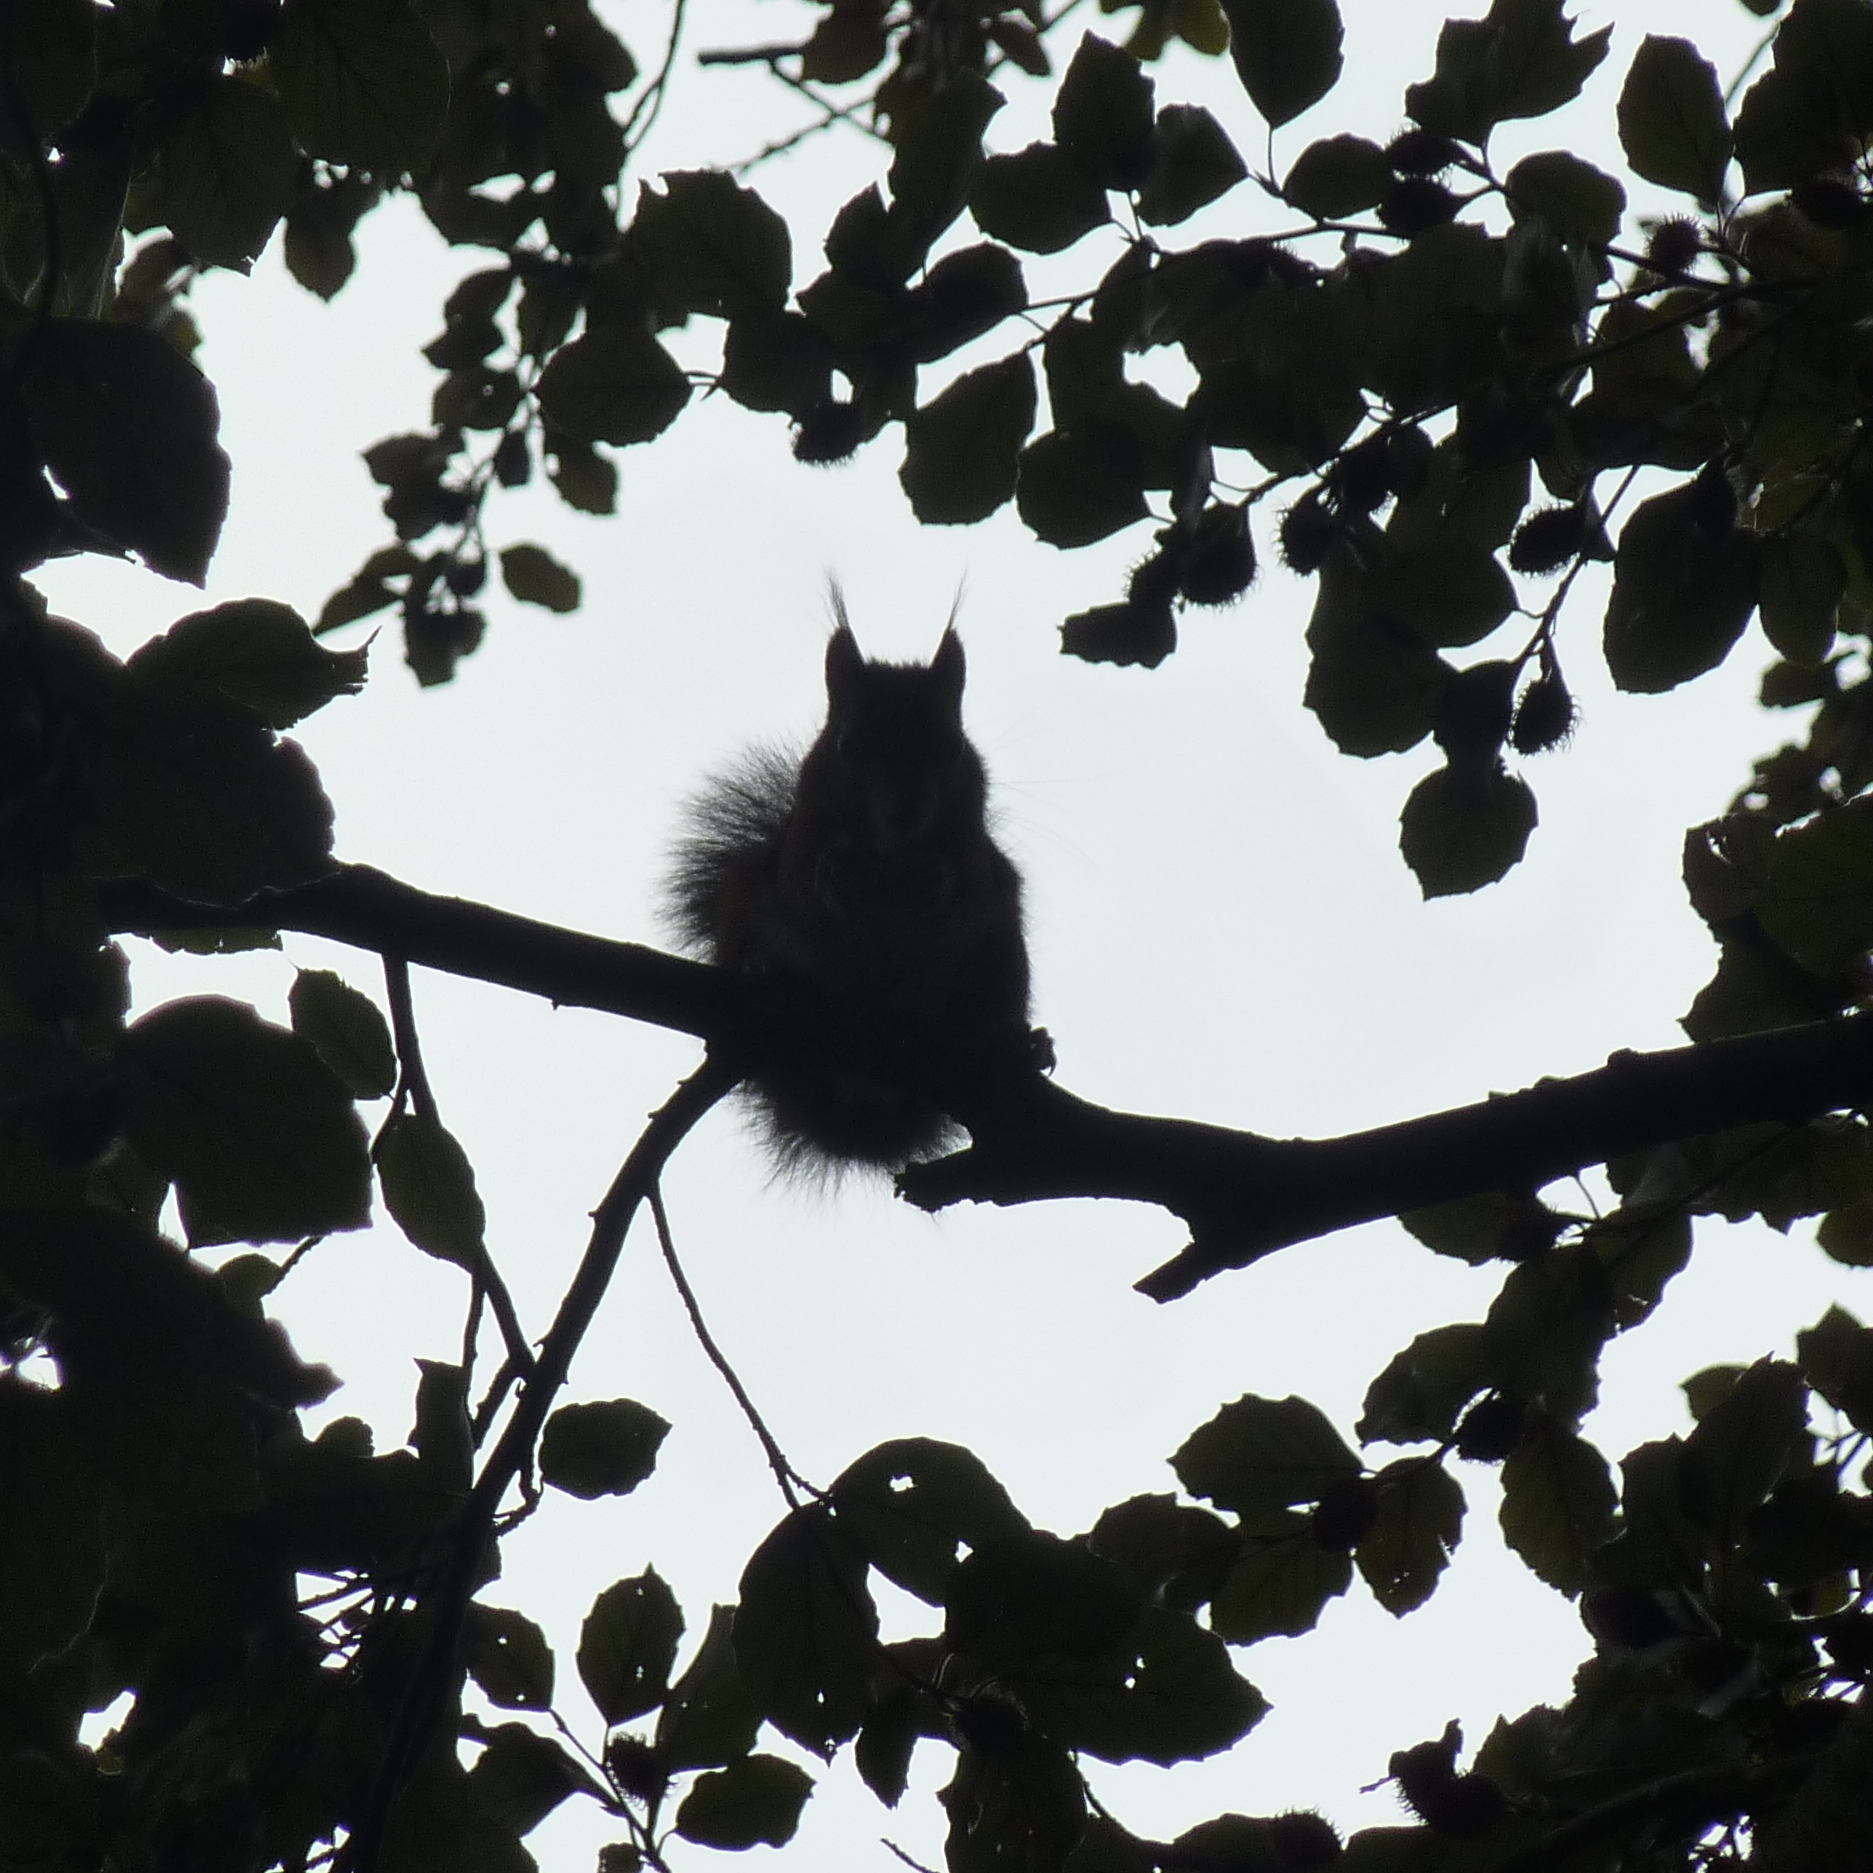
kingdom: Animalia
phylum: Chordata
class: Mammalia
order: Rodentia
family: Sciuridae
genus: Sciurus
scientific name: Sciurus vulgaris
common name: Eurasian red squirrel
